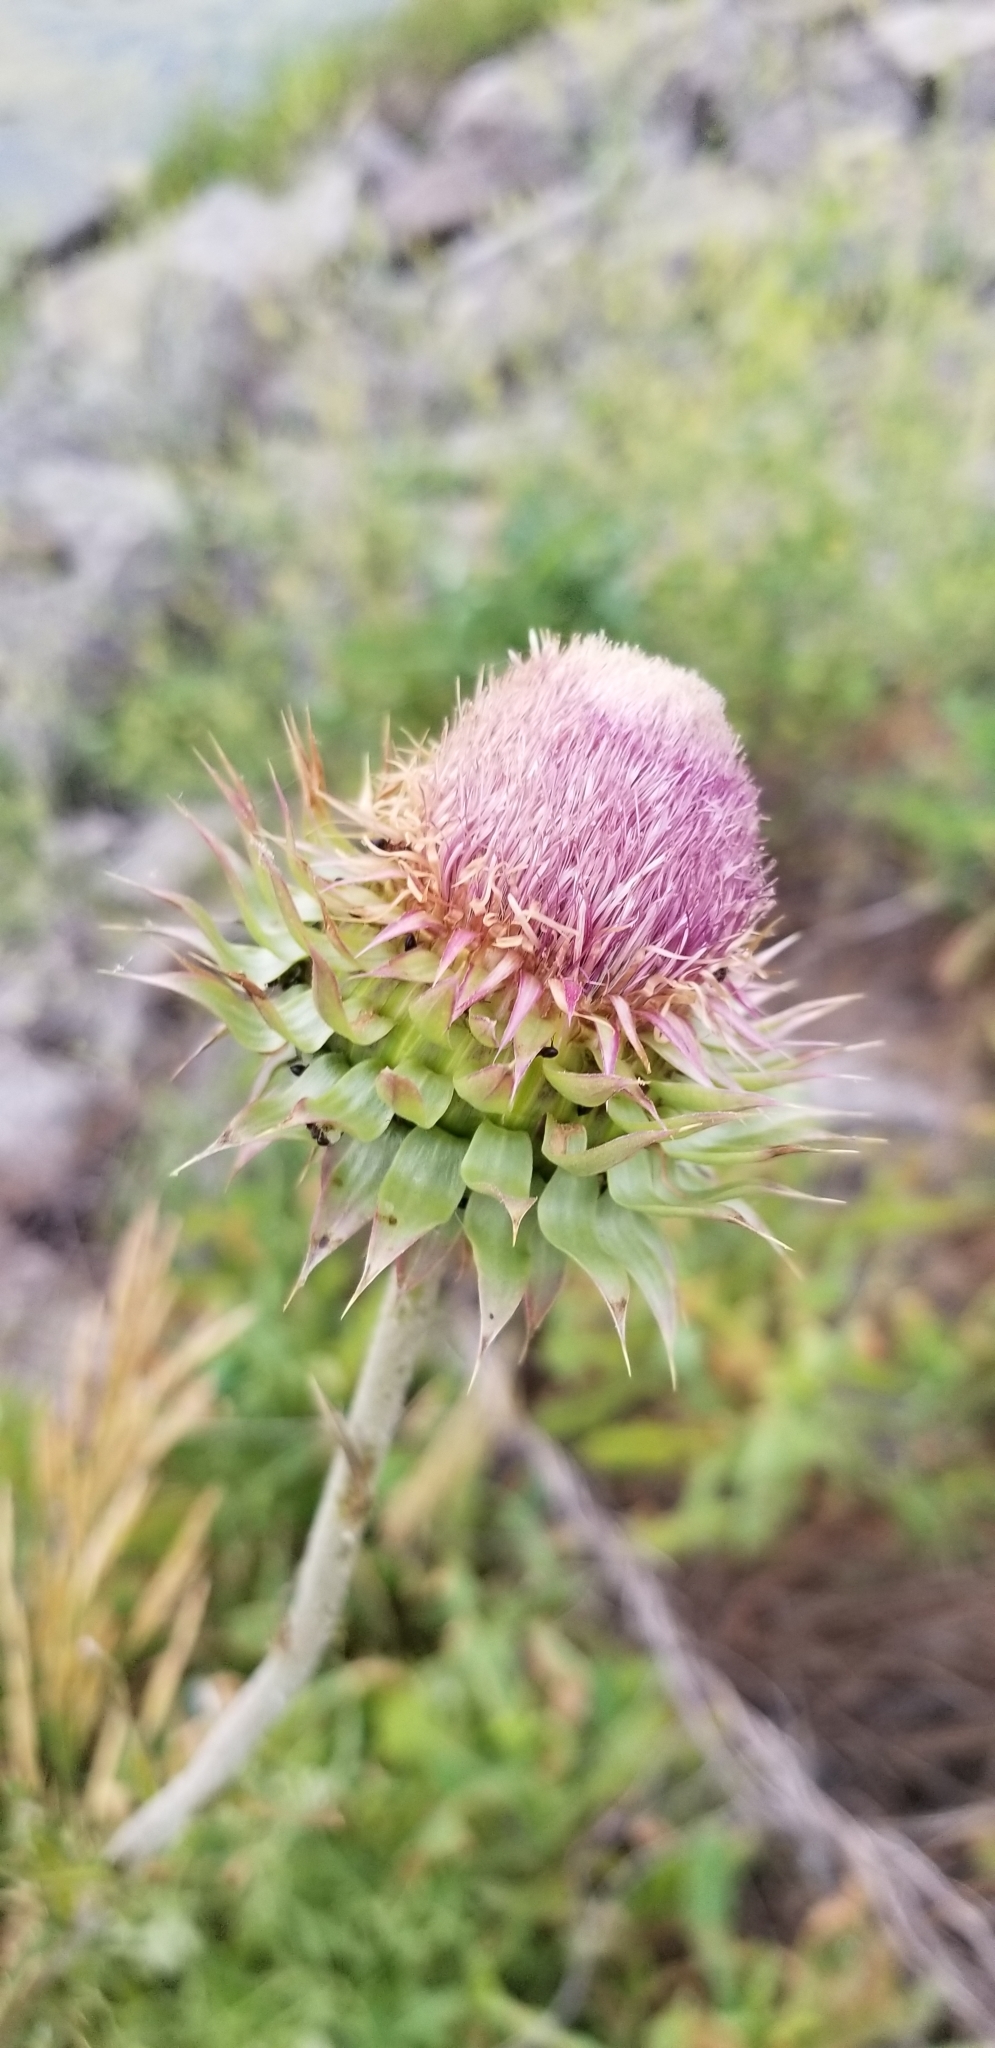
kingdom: Plantae
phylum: Tracheophyta
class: Magnoliopsida
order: Asterales
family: Asteraceae
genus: Carduus
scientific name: Carduus nutans
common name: Musk thistle
